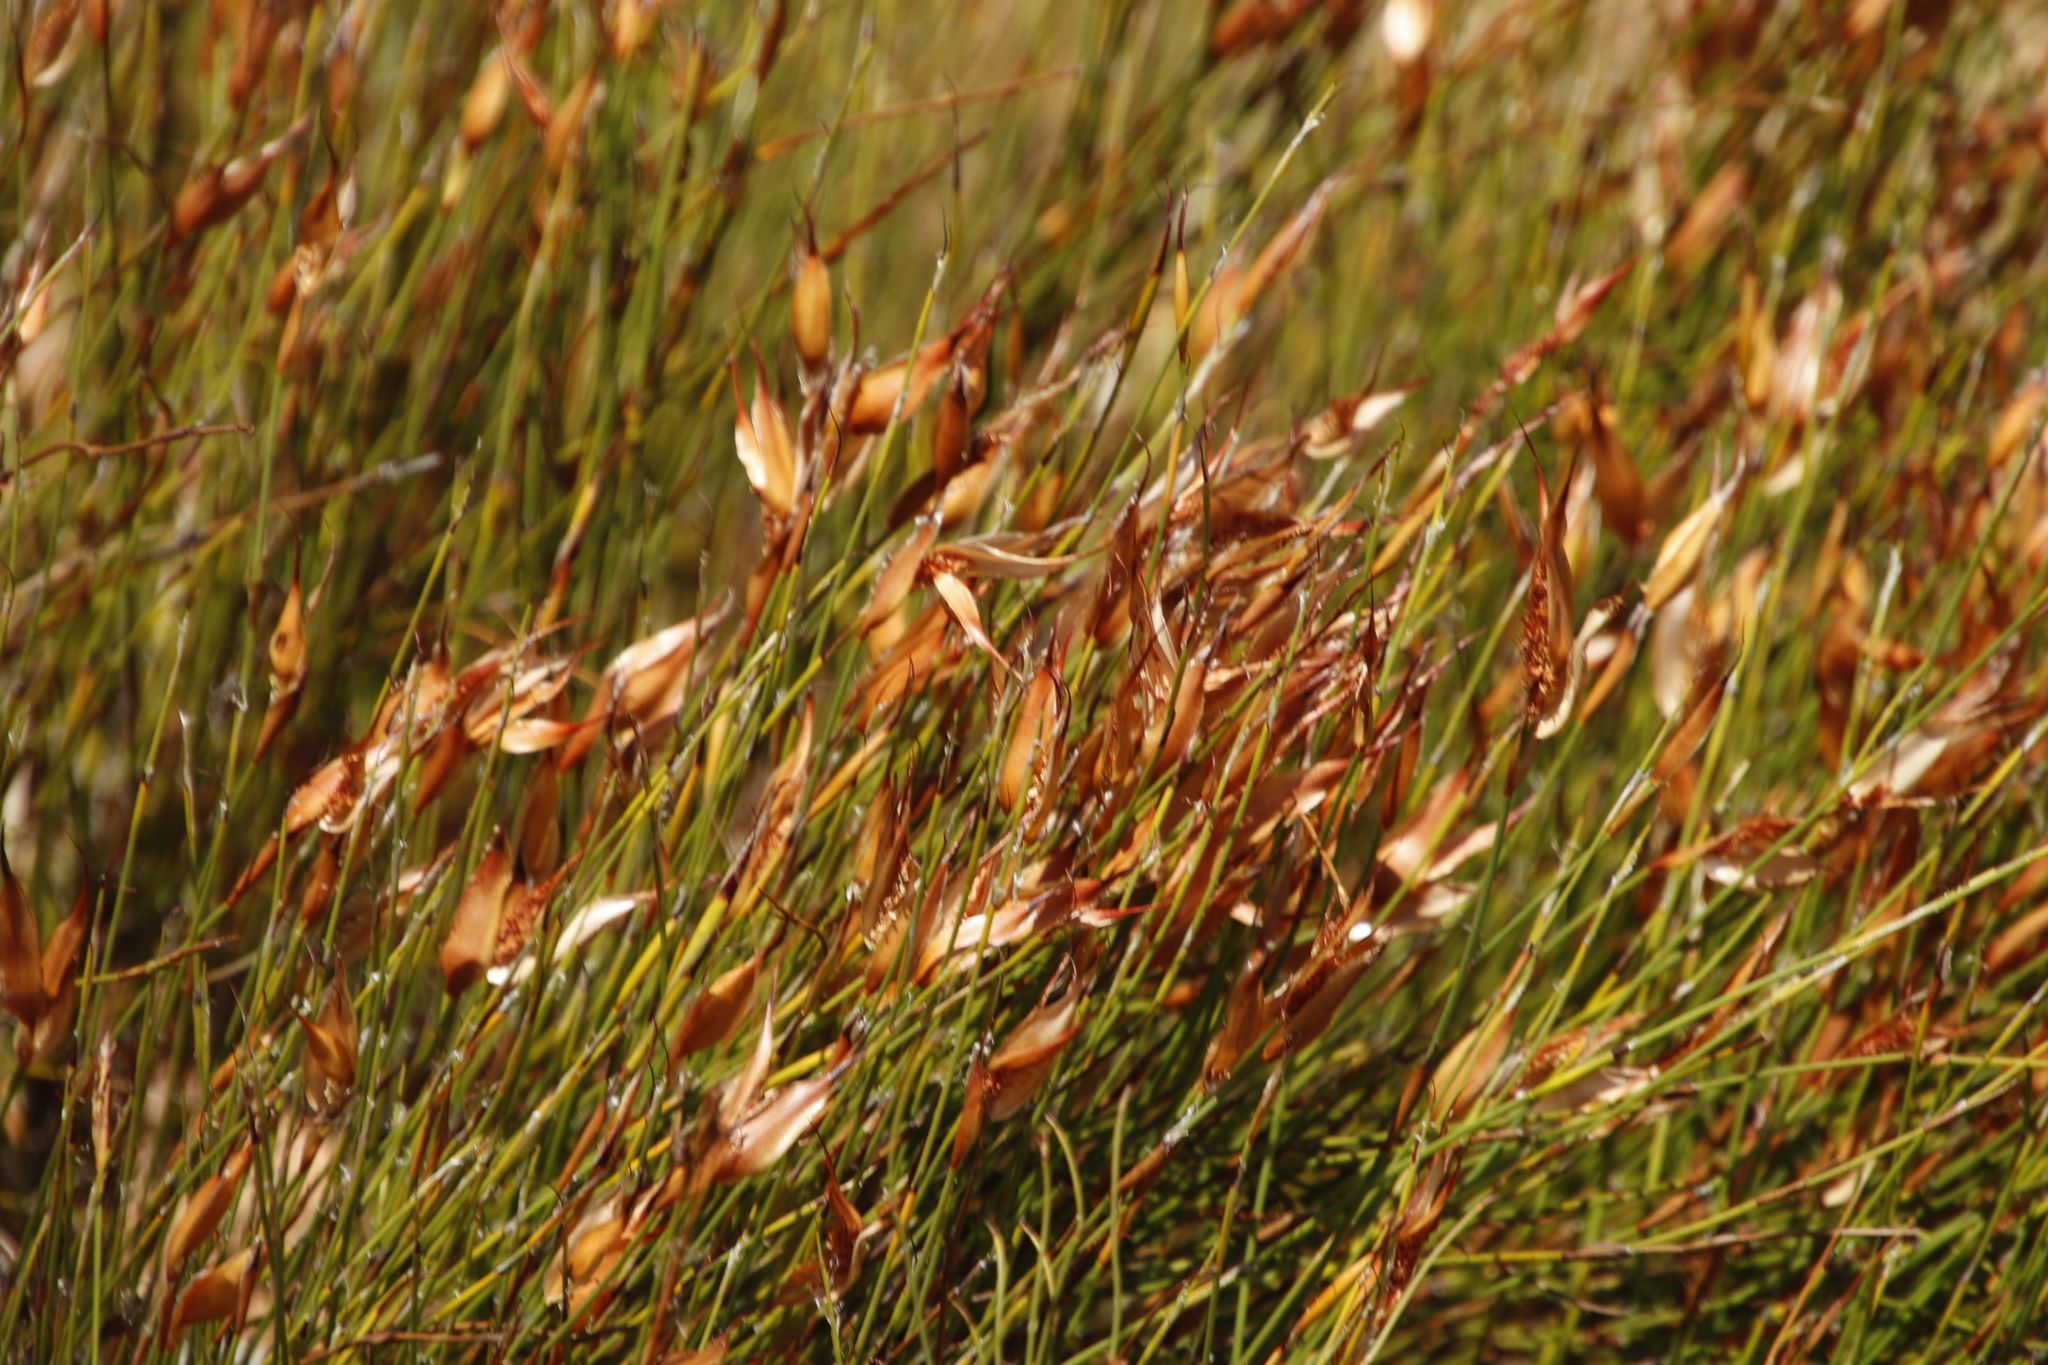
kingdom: Plantae
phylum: Tracheophyta
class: Liliopsida
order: Poales
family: Restionaceae
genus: Willdenowia
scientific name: Willdenowia glomerata
